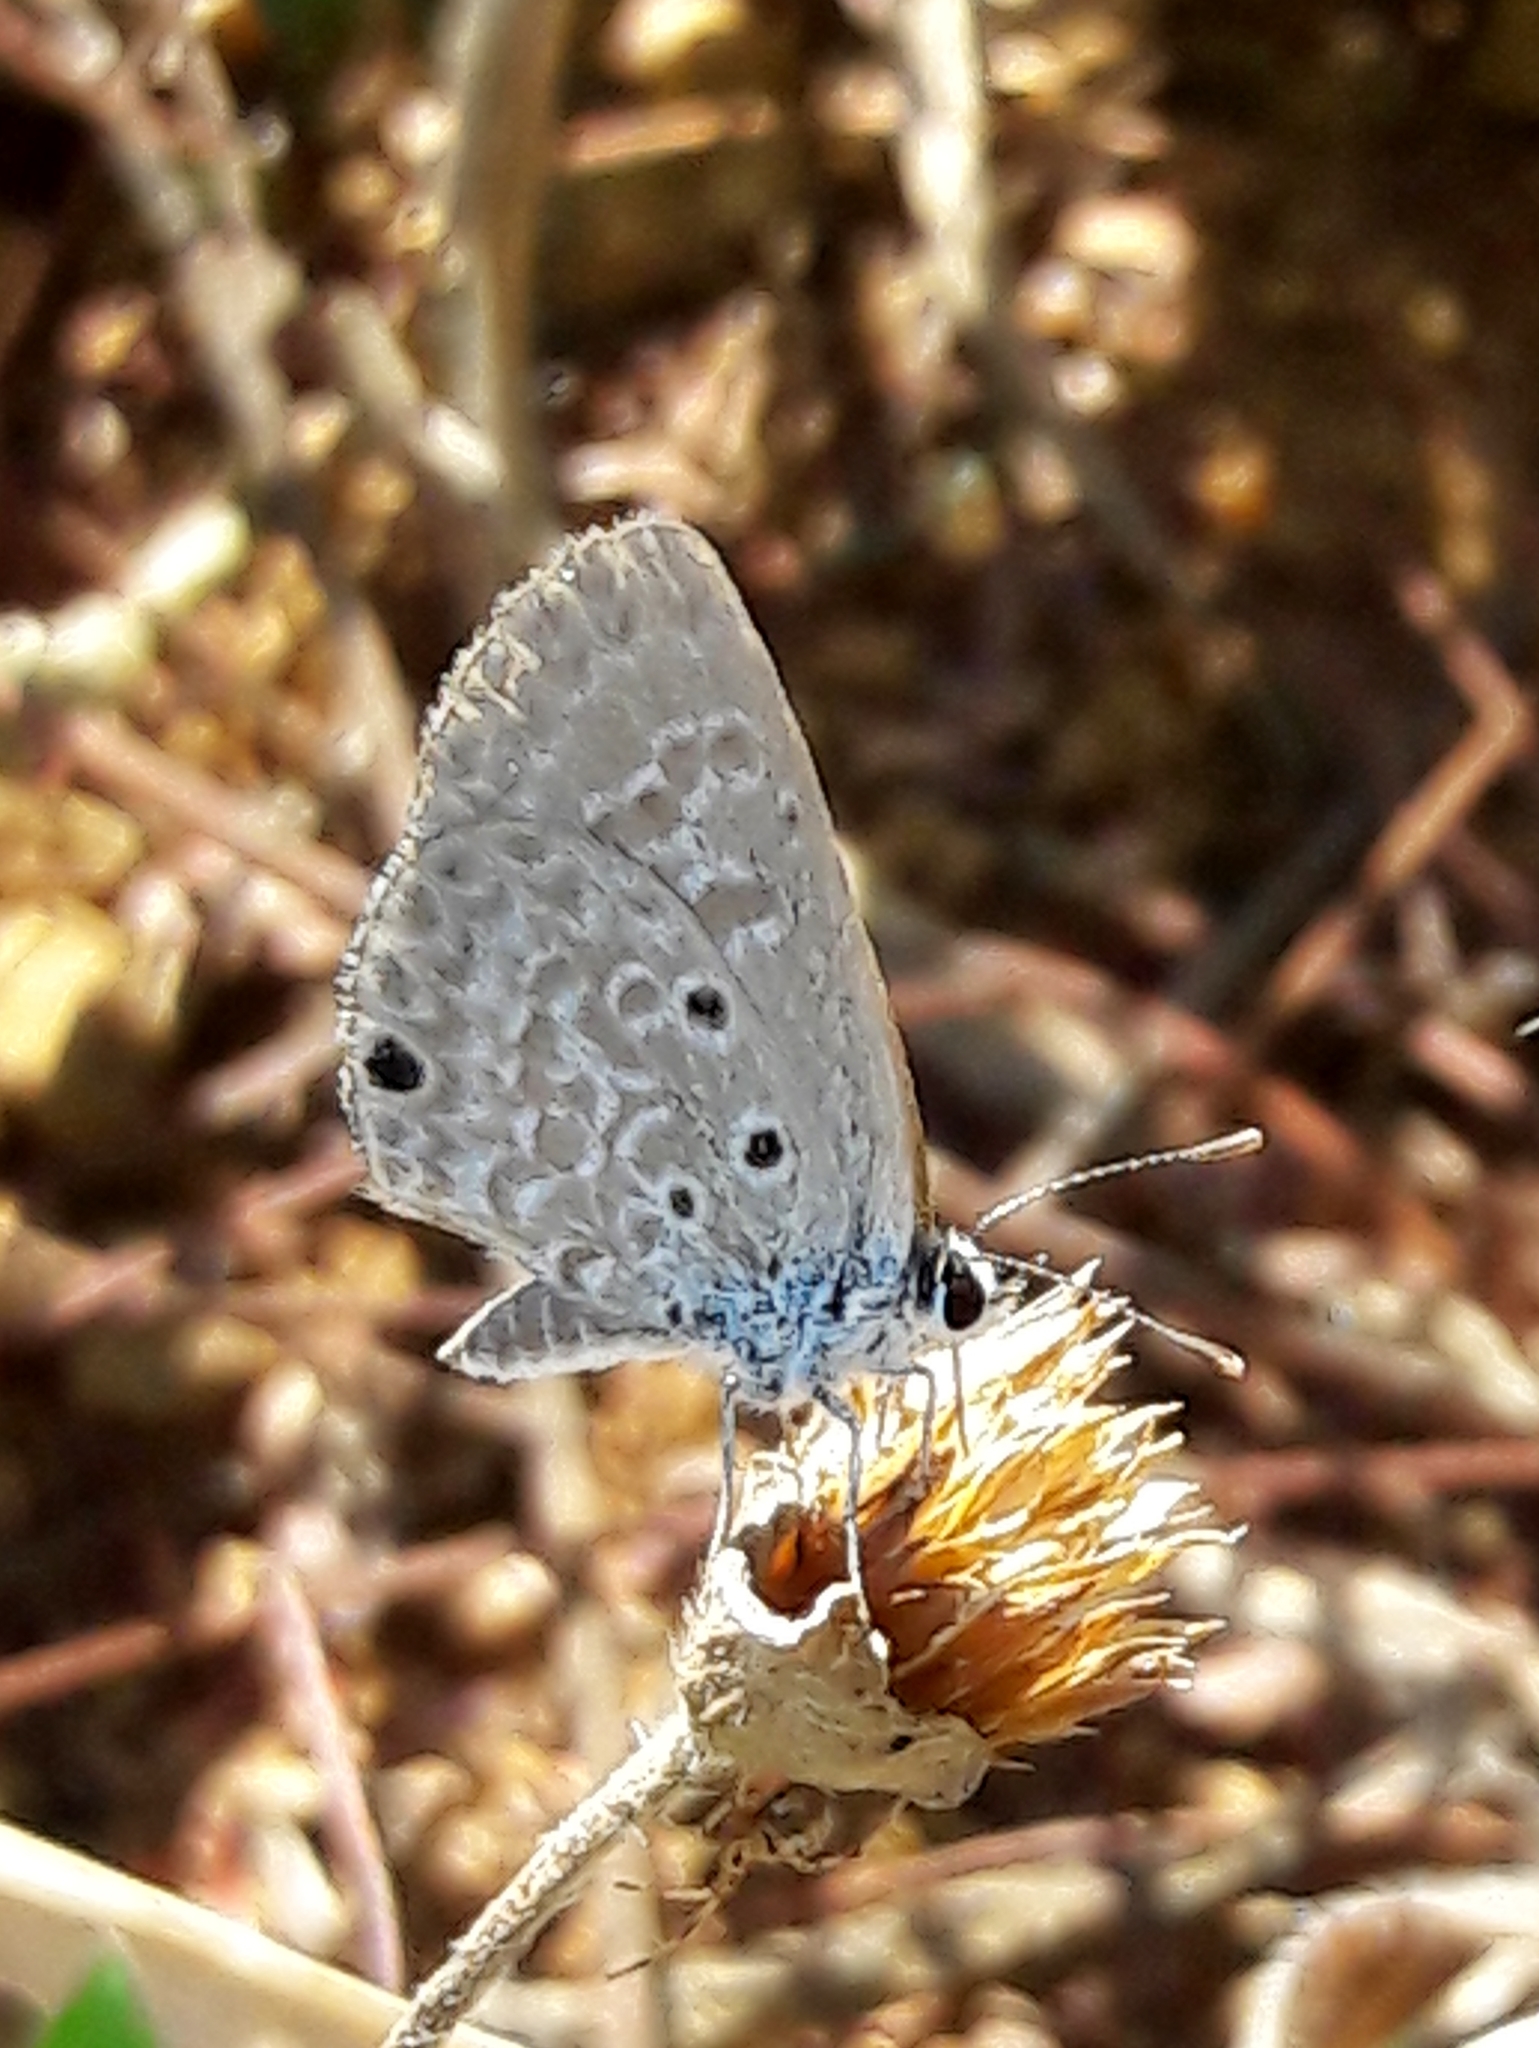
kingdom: Animalia
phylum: Arthropoda
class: Insecta
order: Lepidoptera
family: Lycaenidae
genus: Hemiargus
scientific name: Hemiargus hanno
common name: Common blue
